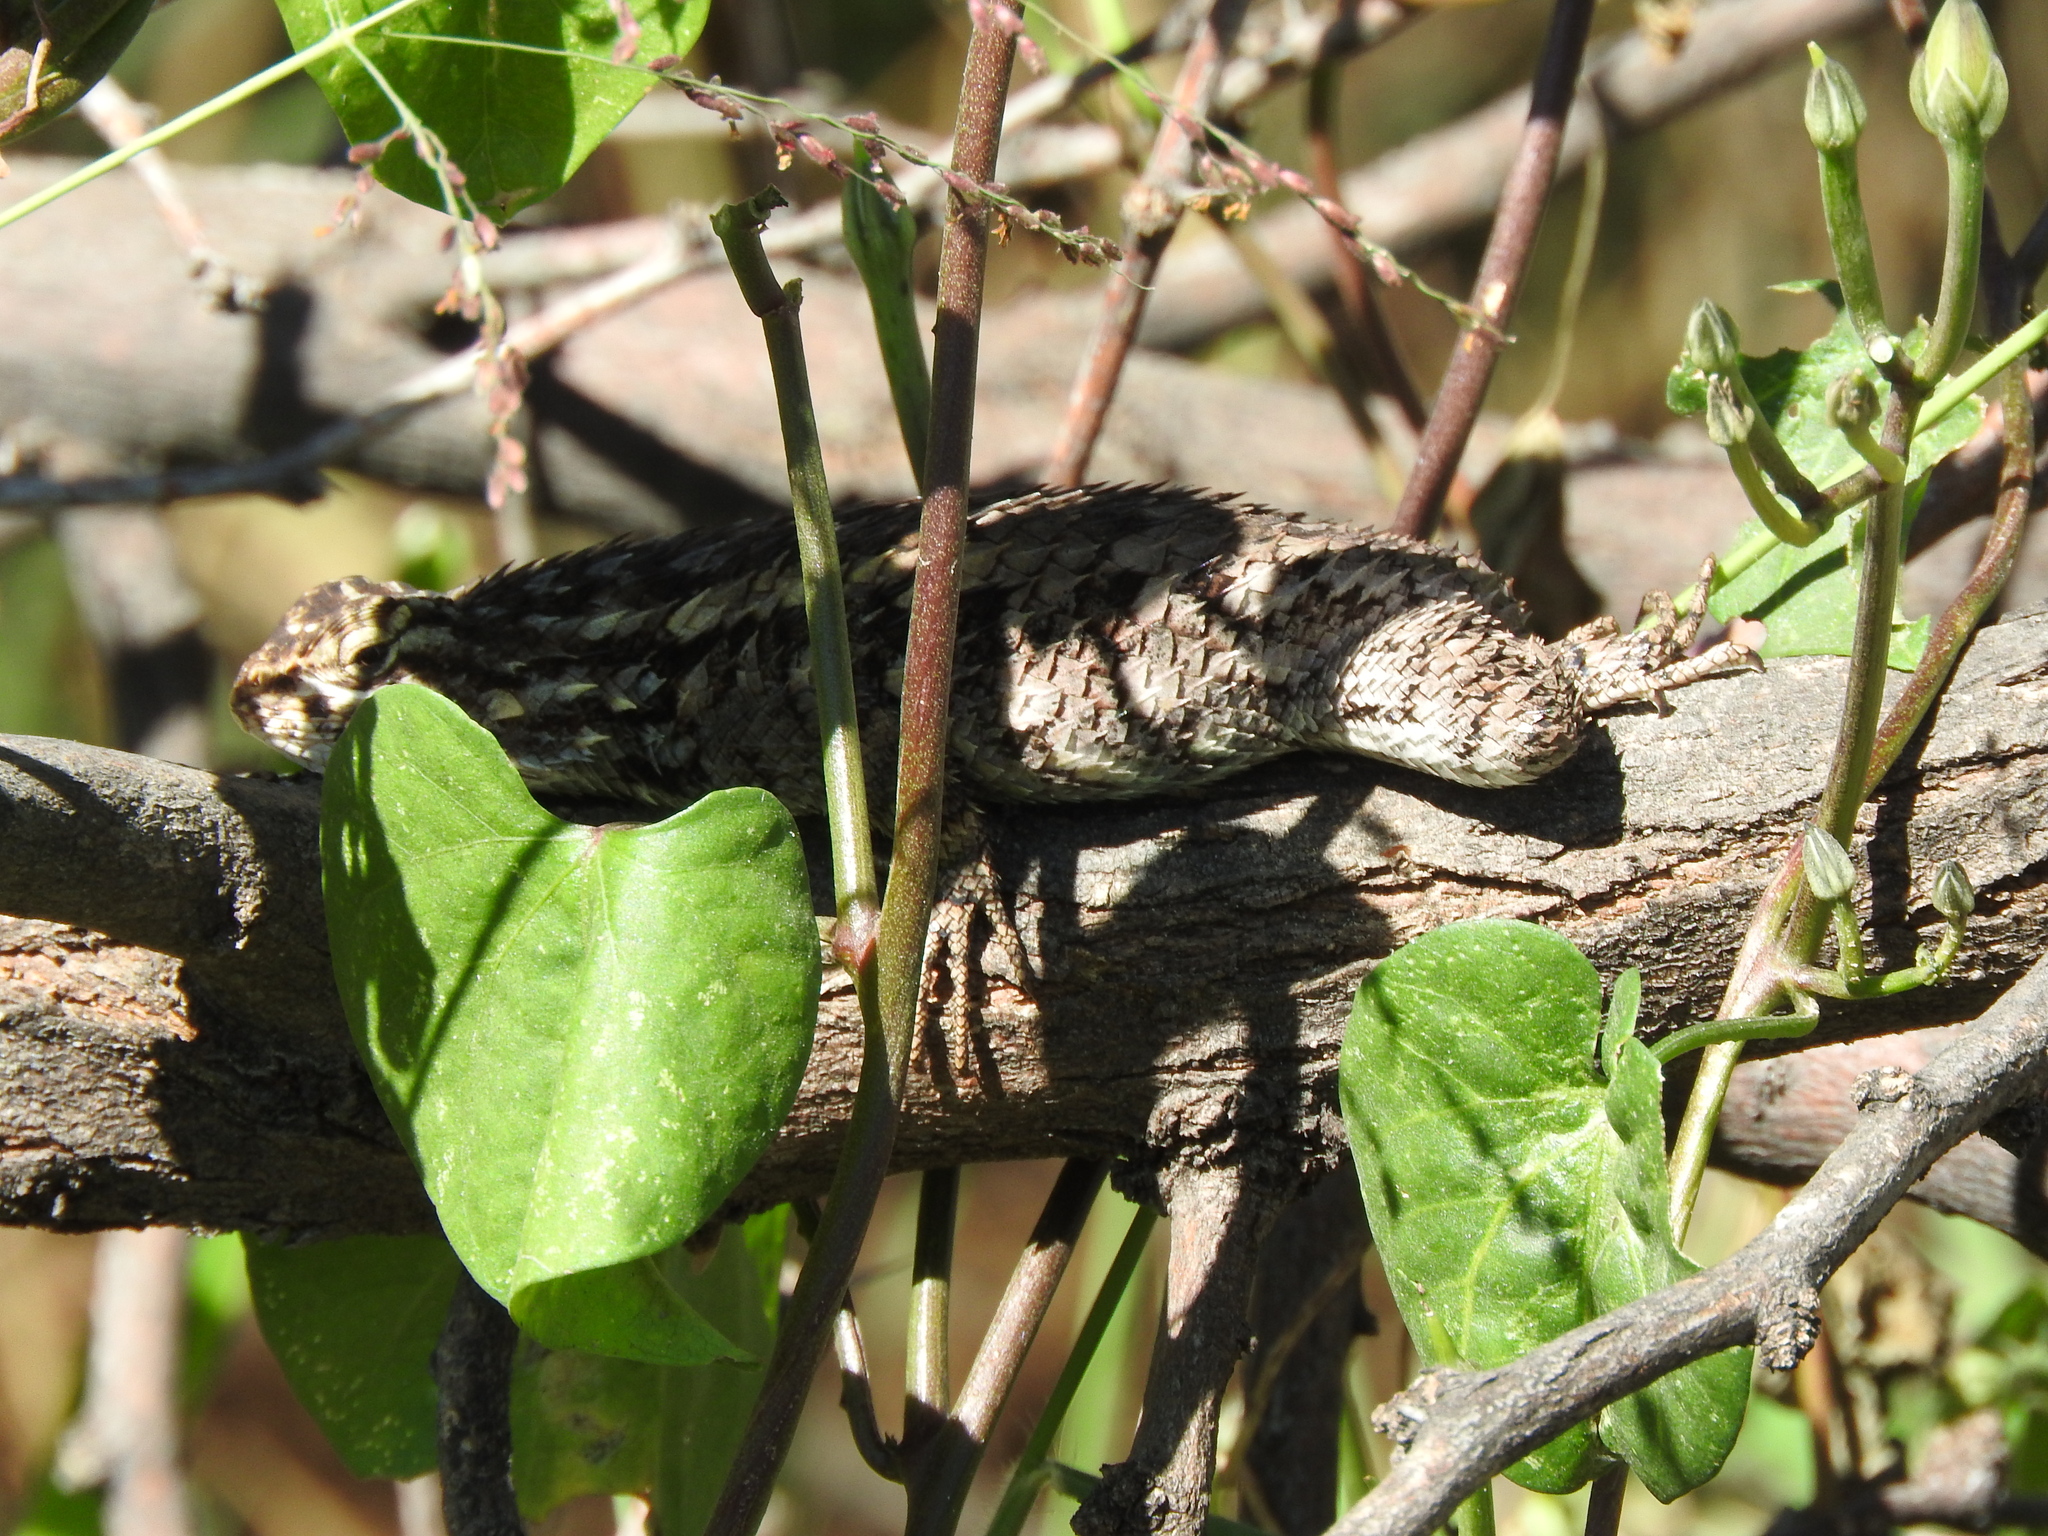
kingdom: Animalia
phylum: Chordata
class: Squamata
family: Phrynosomatidae
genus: Sceloporus
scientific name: Sceloporus spinosus
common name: Blue-spotted spiny lizard [caeruleopunctatus]
